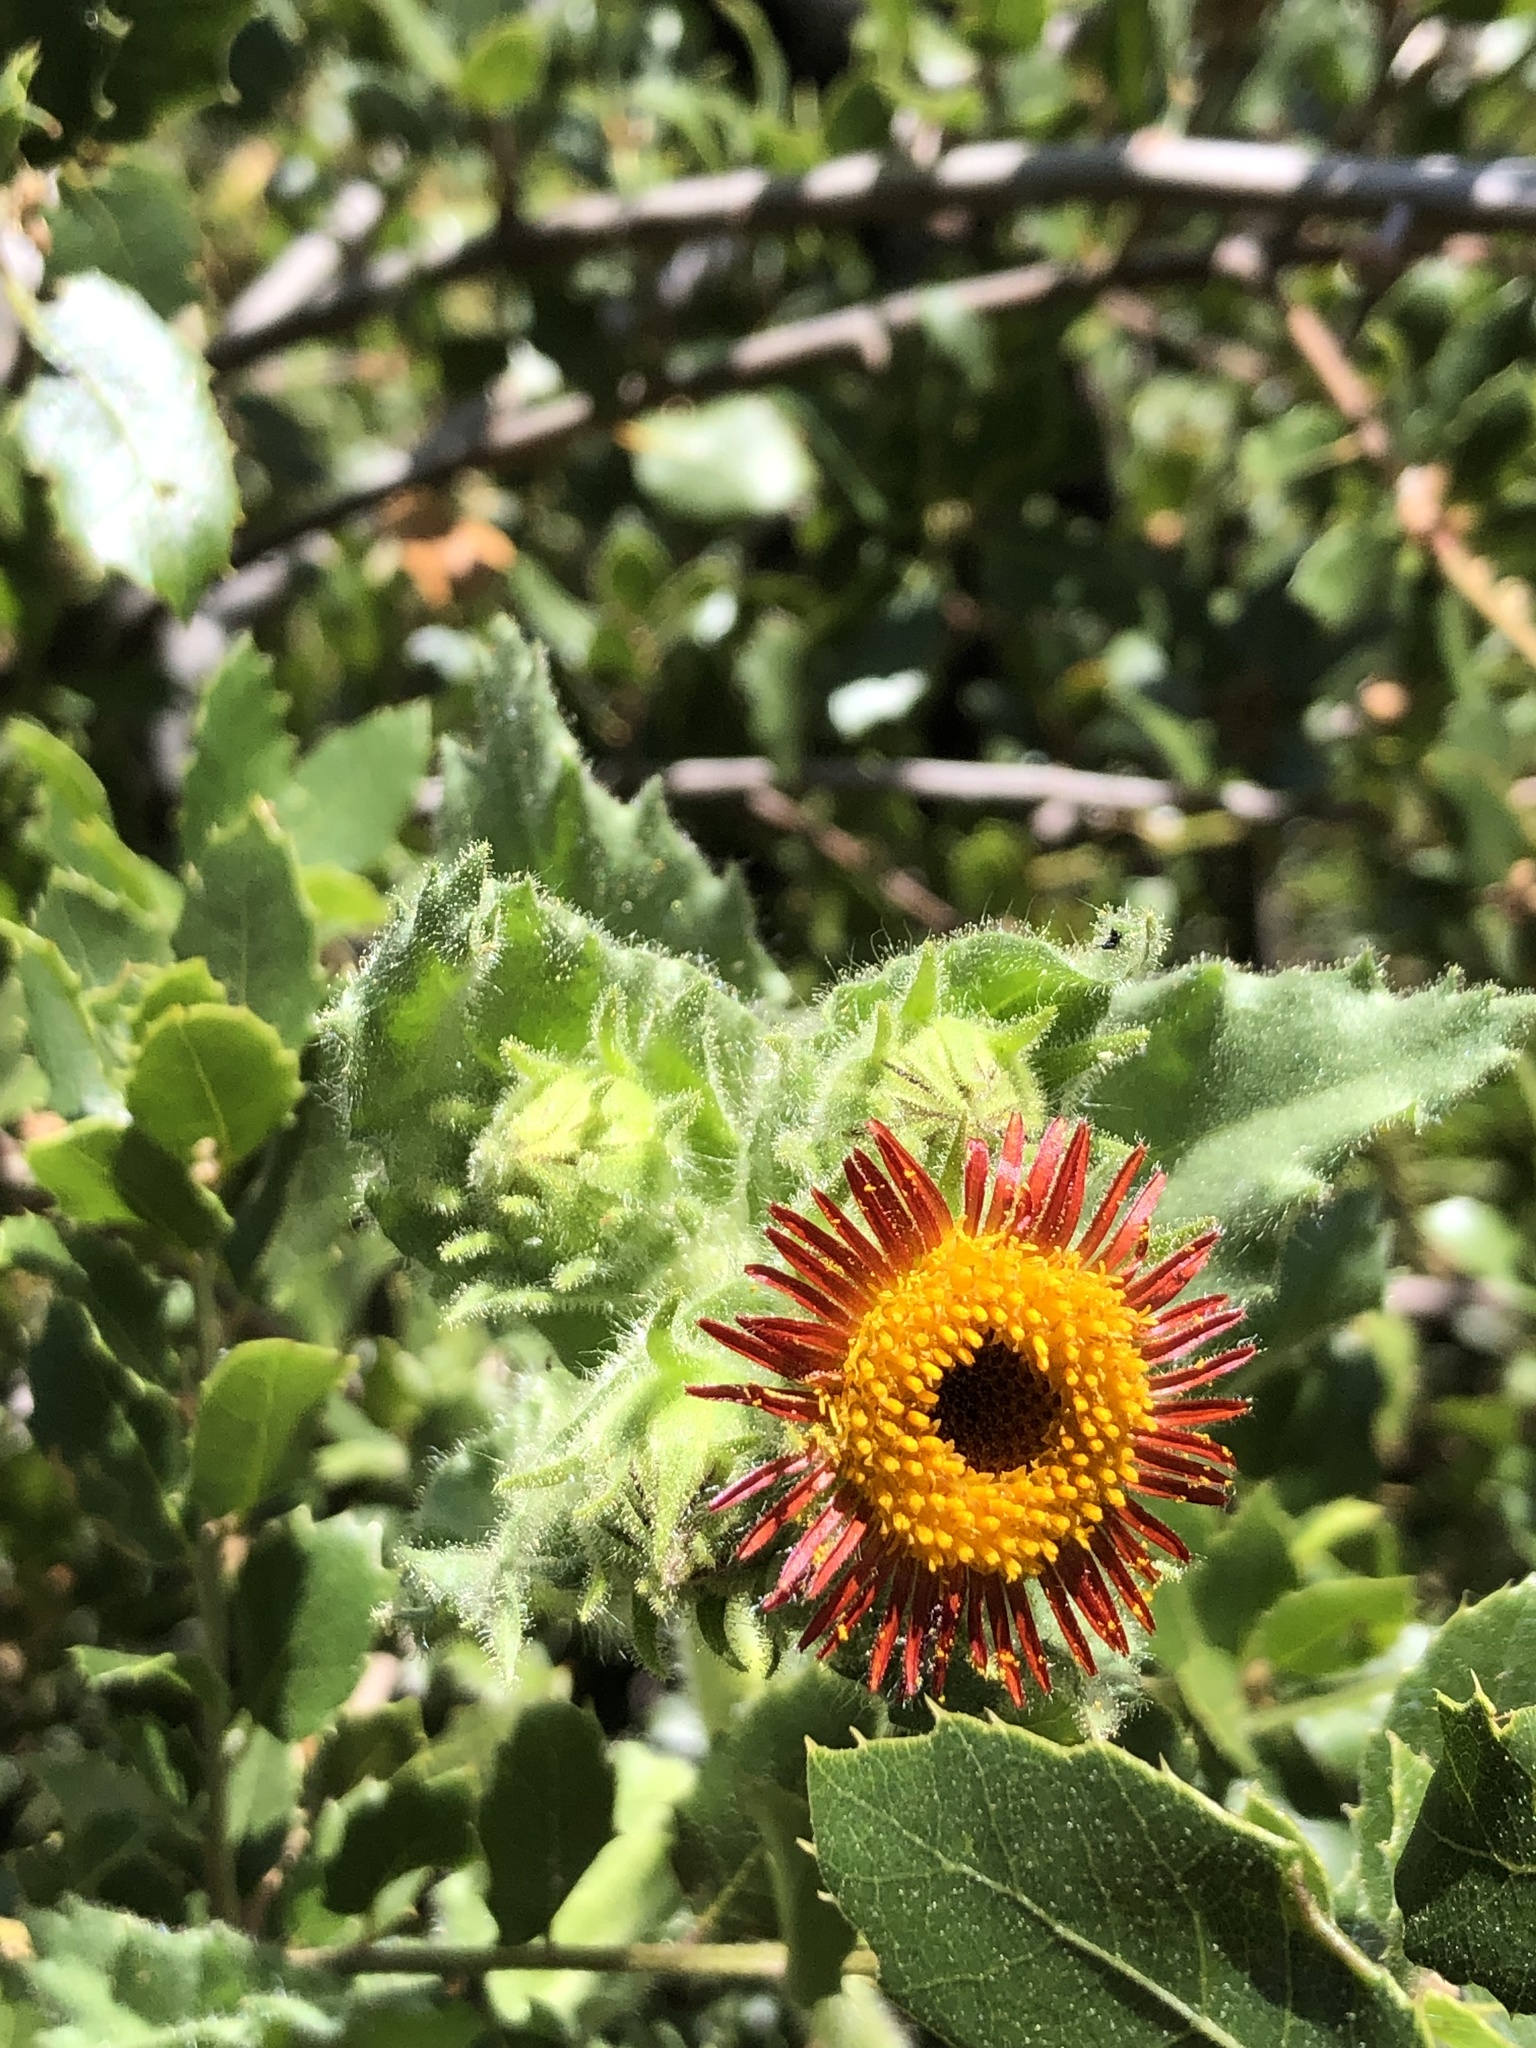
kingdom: Plantae
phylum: Tracheophyta
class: Magnoliopsida
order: Asterales
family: Asteraceae
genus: Hulsea
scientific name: Hulsea heterochroma
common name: Redray alpinegold
